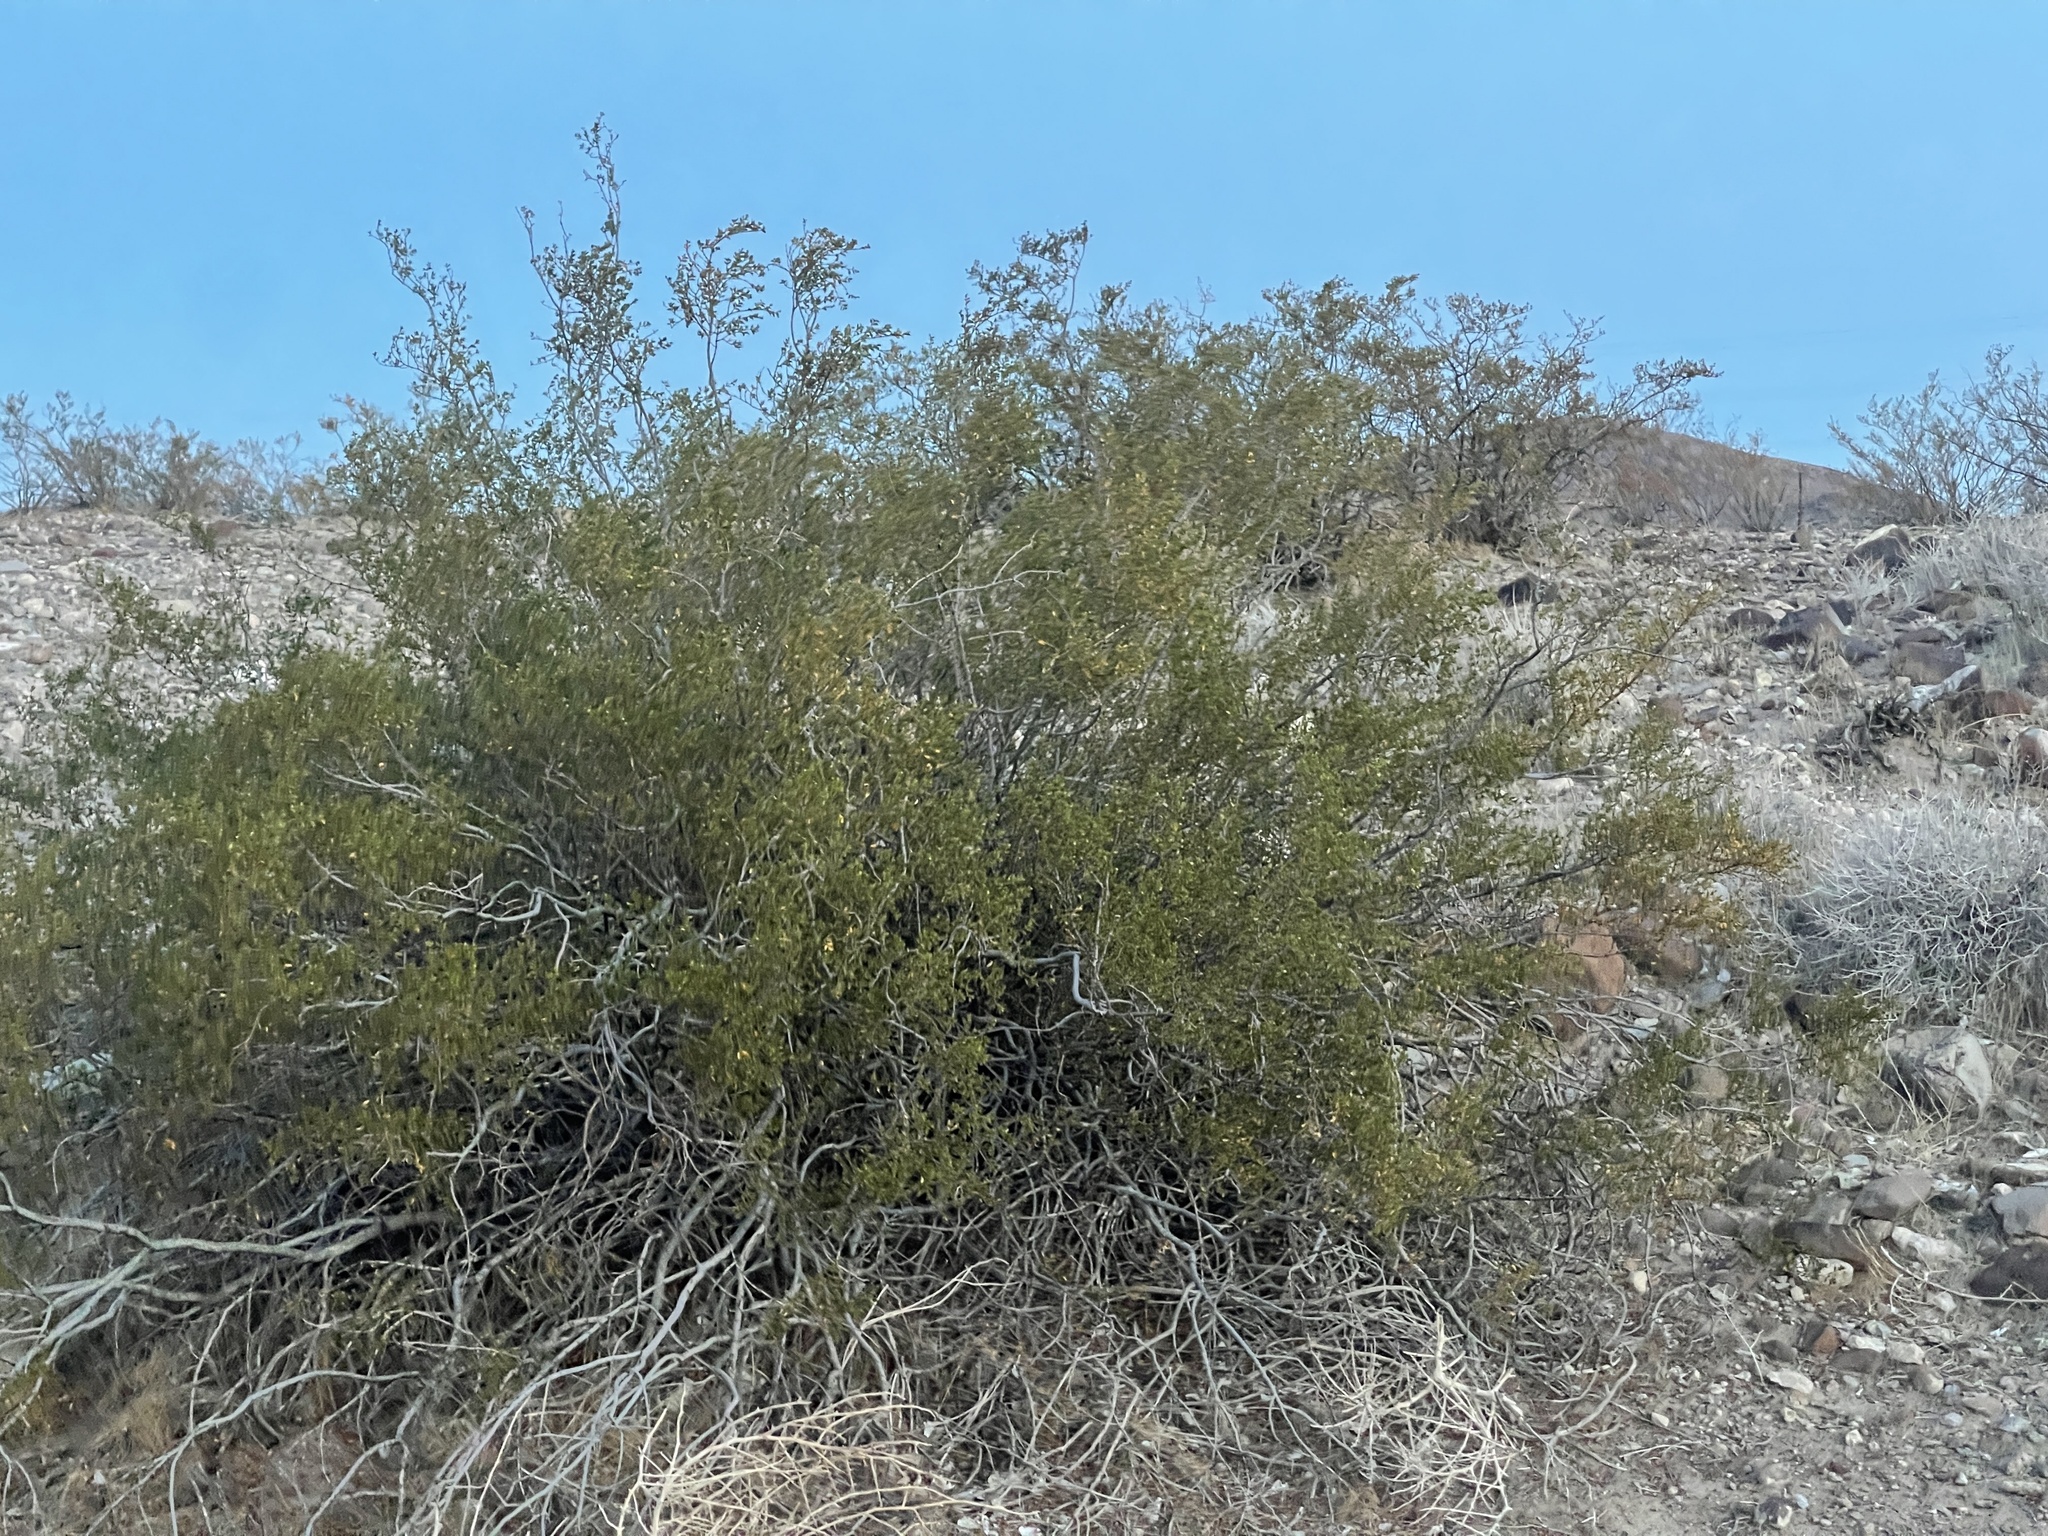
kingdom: Plantae
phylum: Tracheophyta
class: Magnoliopsida
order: Zygophyllales
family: Zygophyllaceae
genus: Larrea
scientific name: Larrea tridentata
